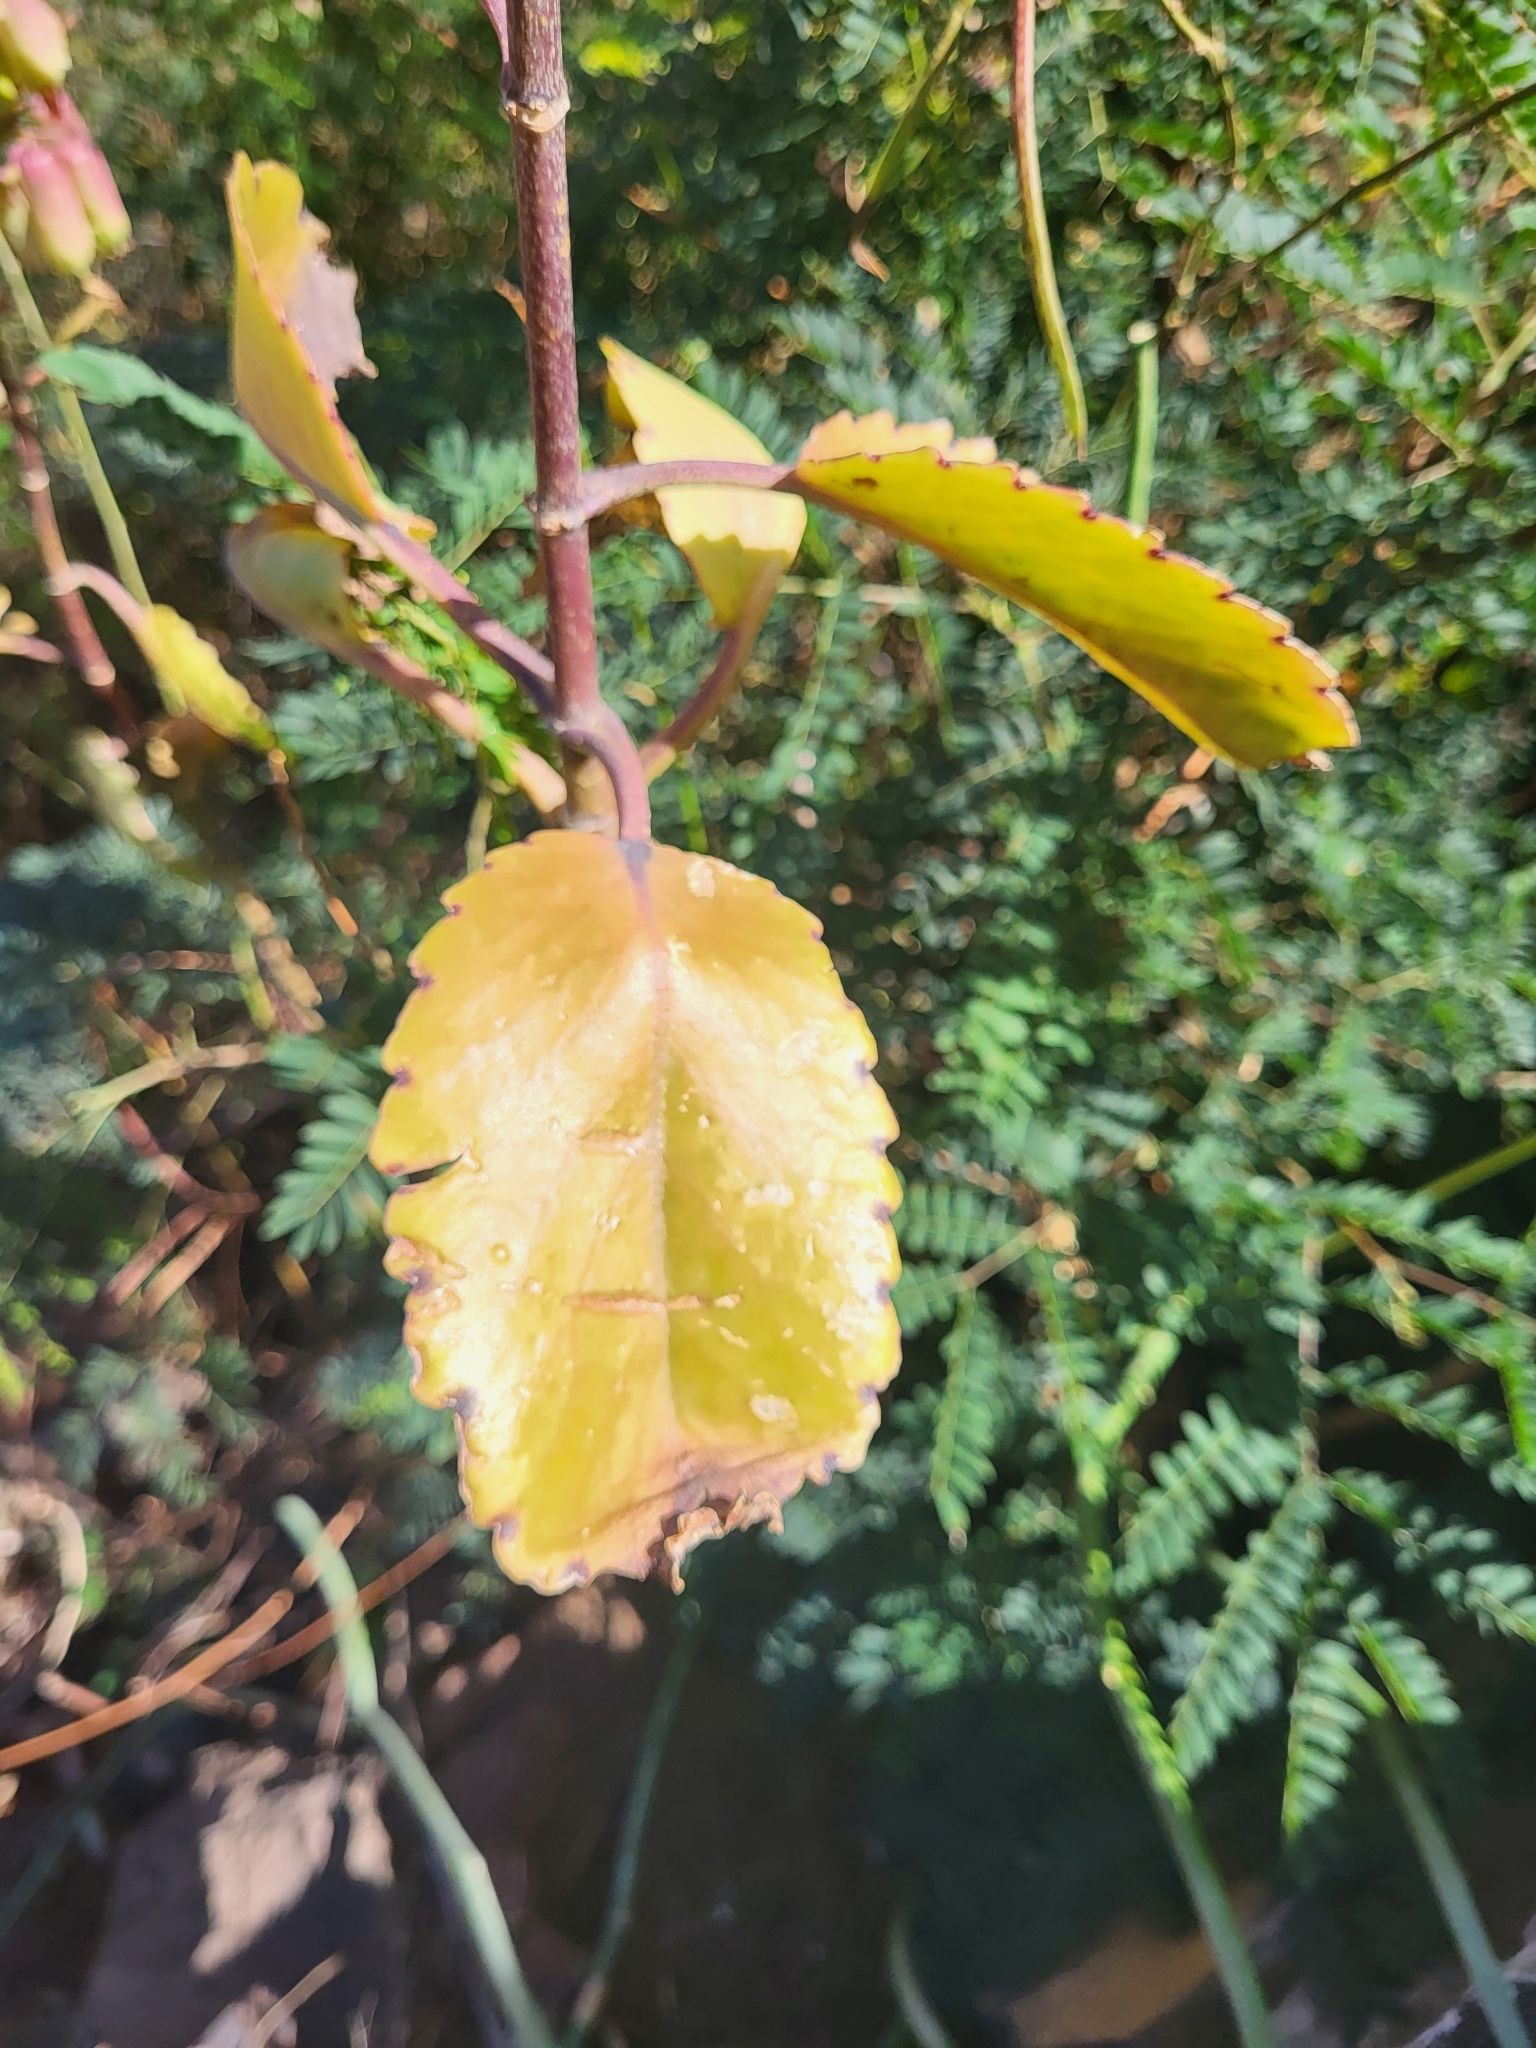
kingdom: Plantae
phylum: Tracheophyta
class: Magnoliopsida
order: Saxifragales
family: Crassulaceae
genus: Kalanchoe
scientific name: Kalanchoe pinnata
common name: Cathedral bells
